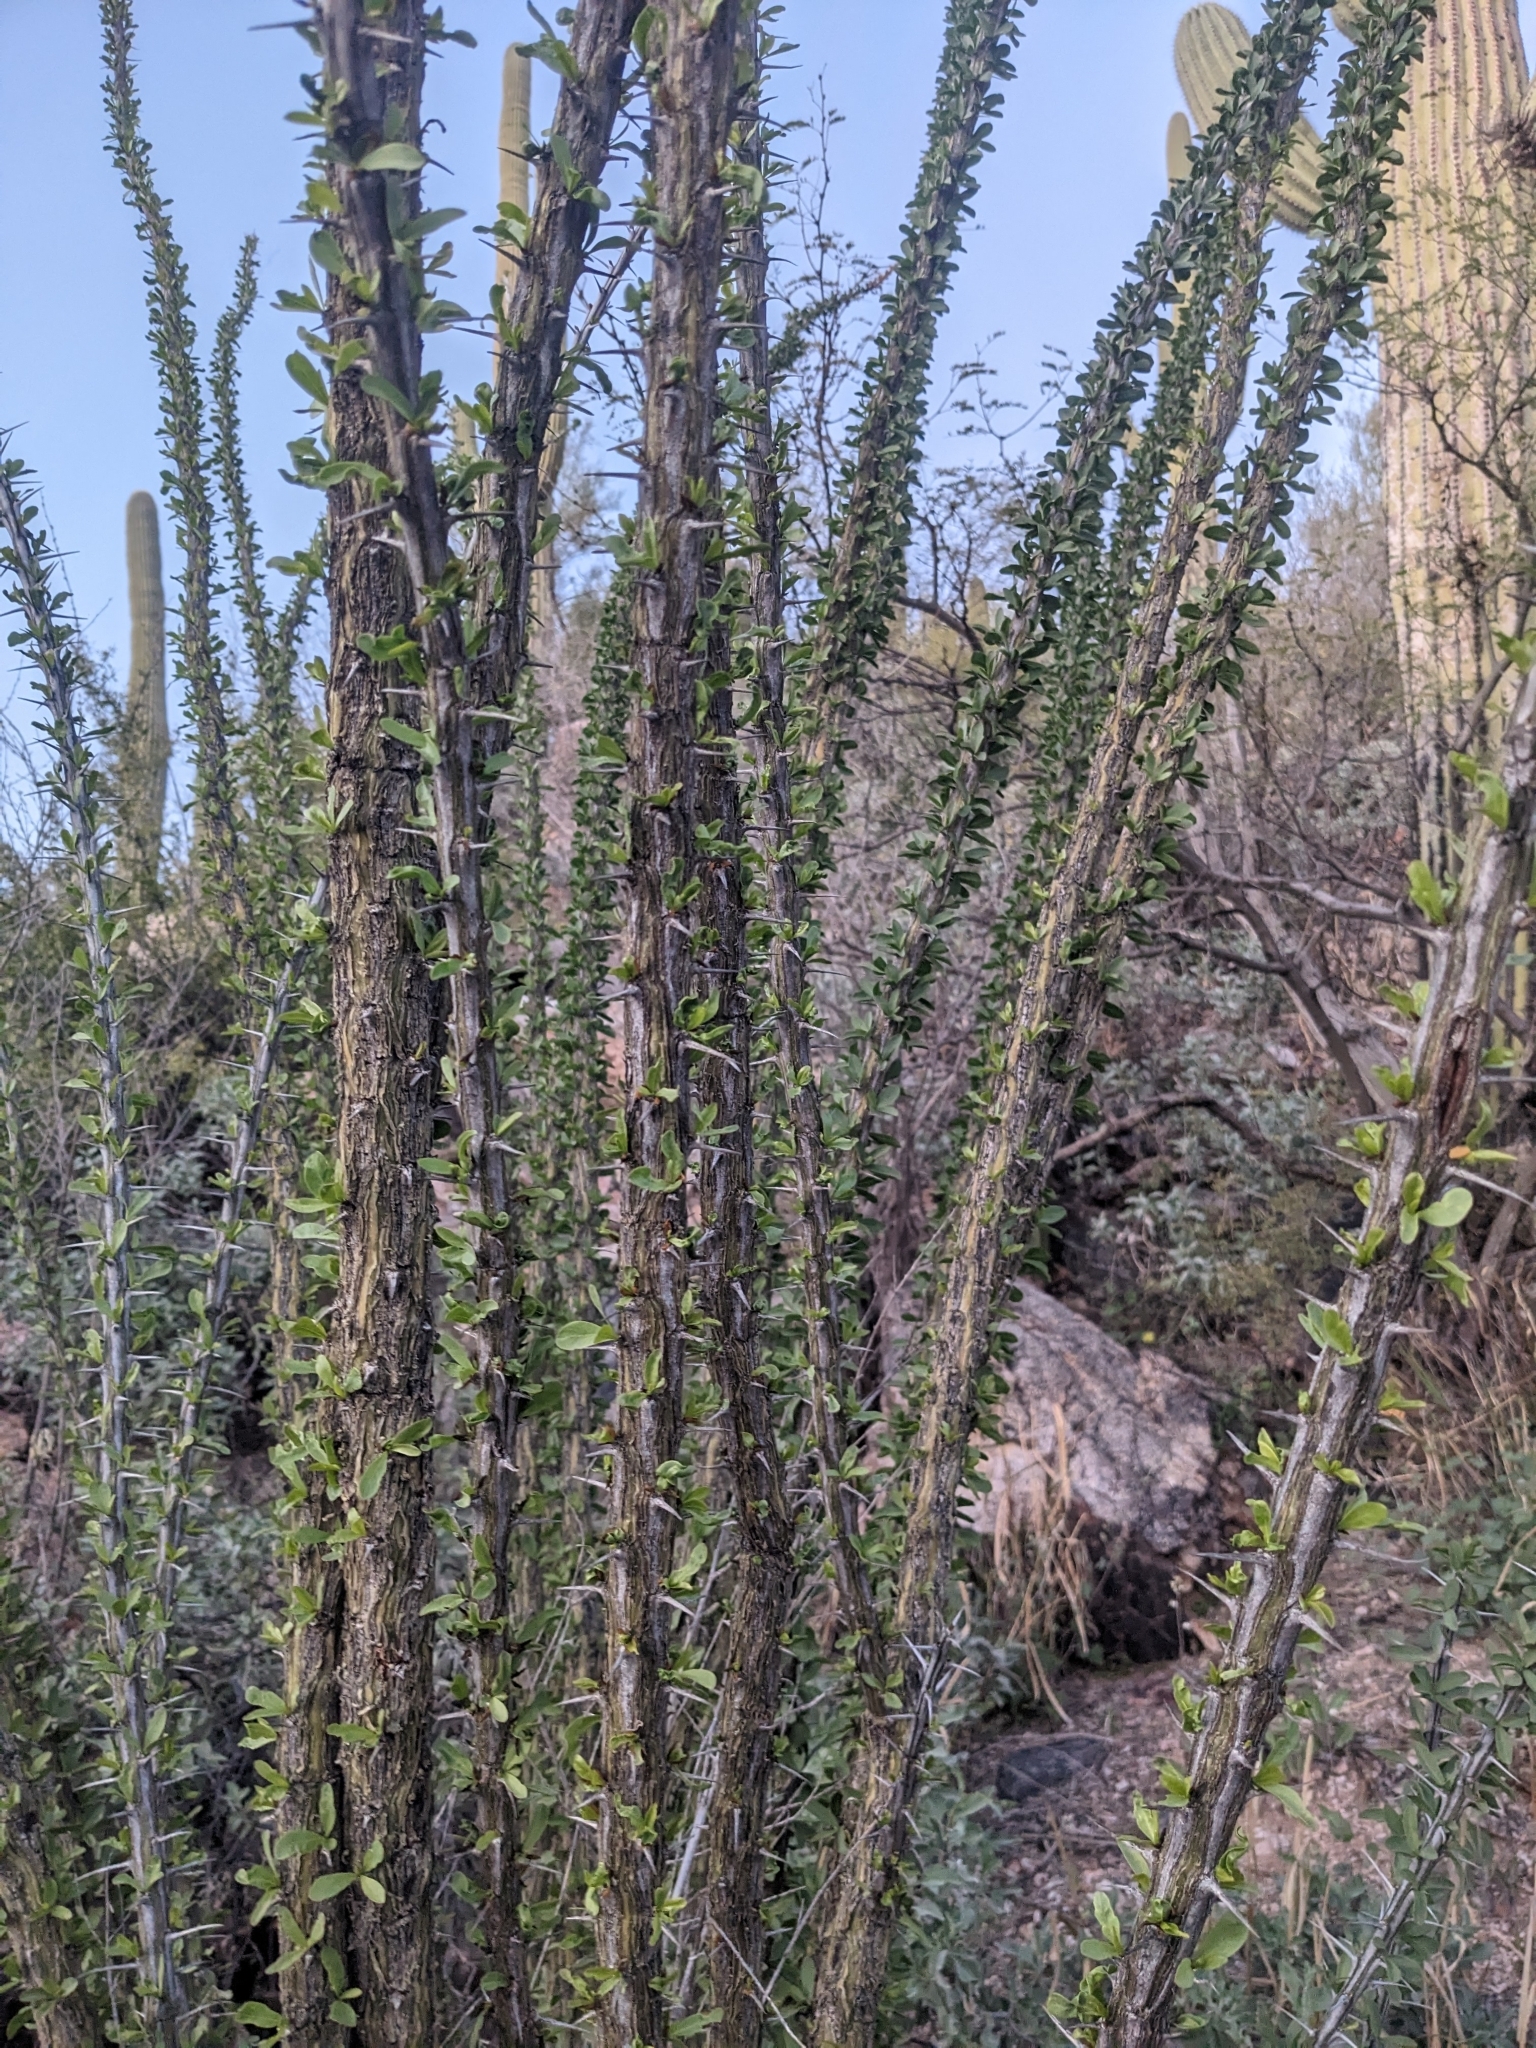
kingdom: Plantae
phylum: Tracheophyta
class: Magnoliopsida
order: Ericales
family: Fouquieriaceae
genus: Fouquieria
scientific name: Fouquieria splendens
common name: Vine-cactus
